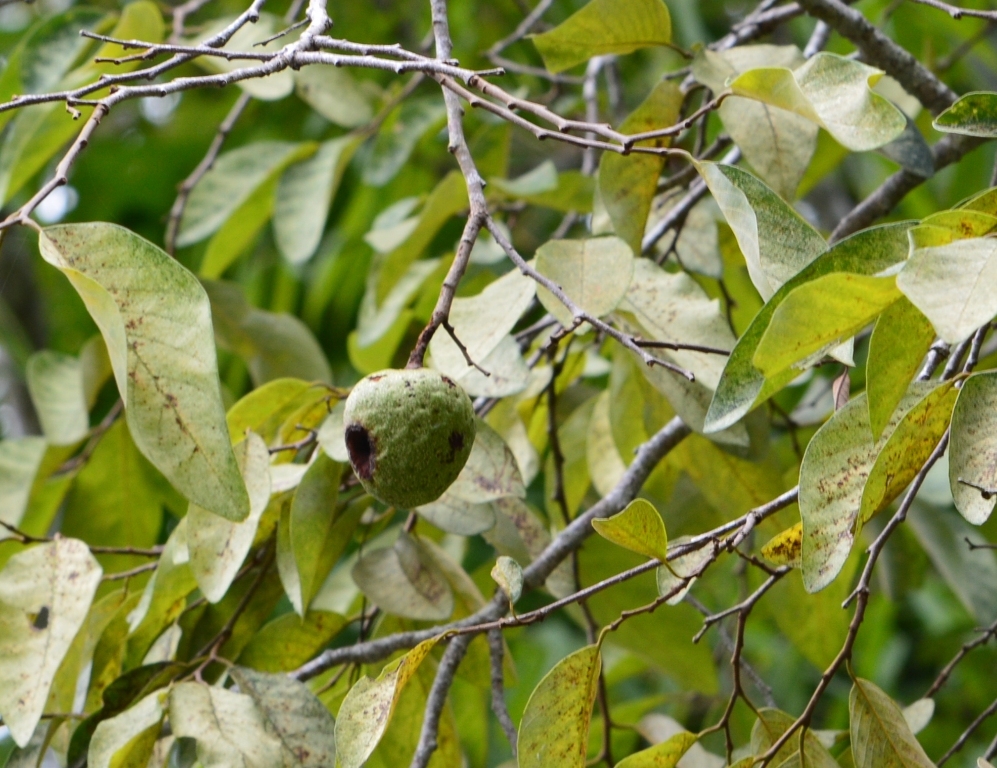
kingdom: Plantae
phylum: Tracheophyta
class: Magnoliopsida
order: Magnoliales
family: Annonaceae
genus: Annona
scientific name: Annona reticulata
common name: Custard apple
